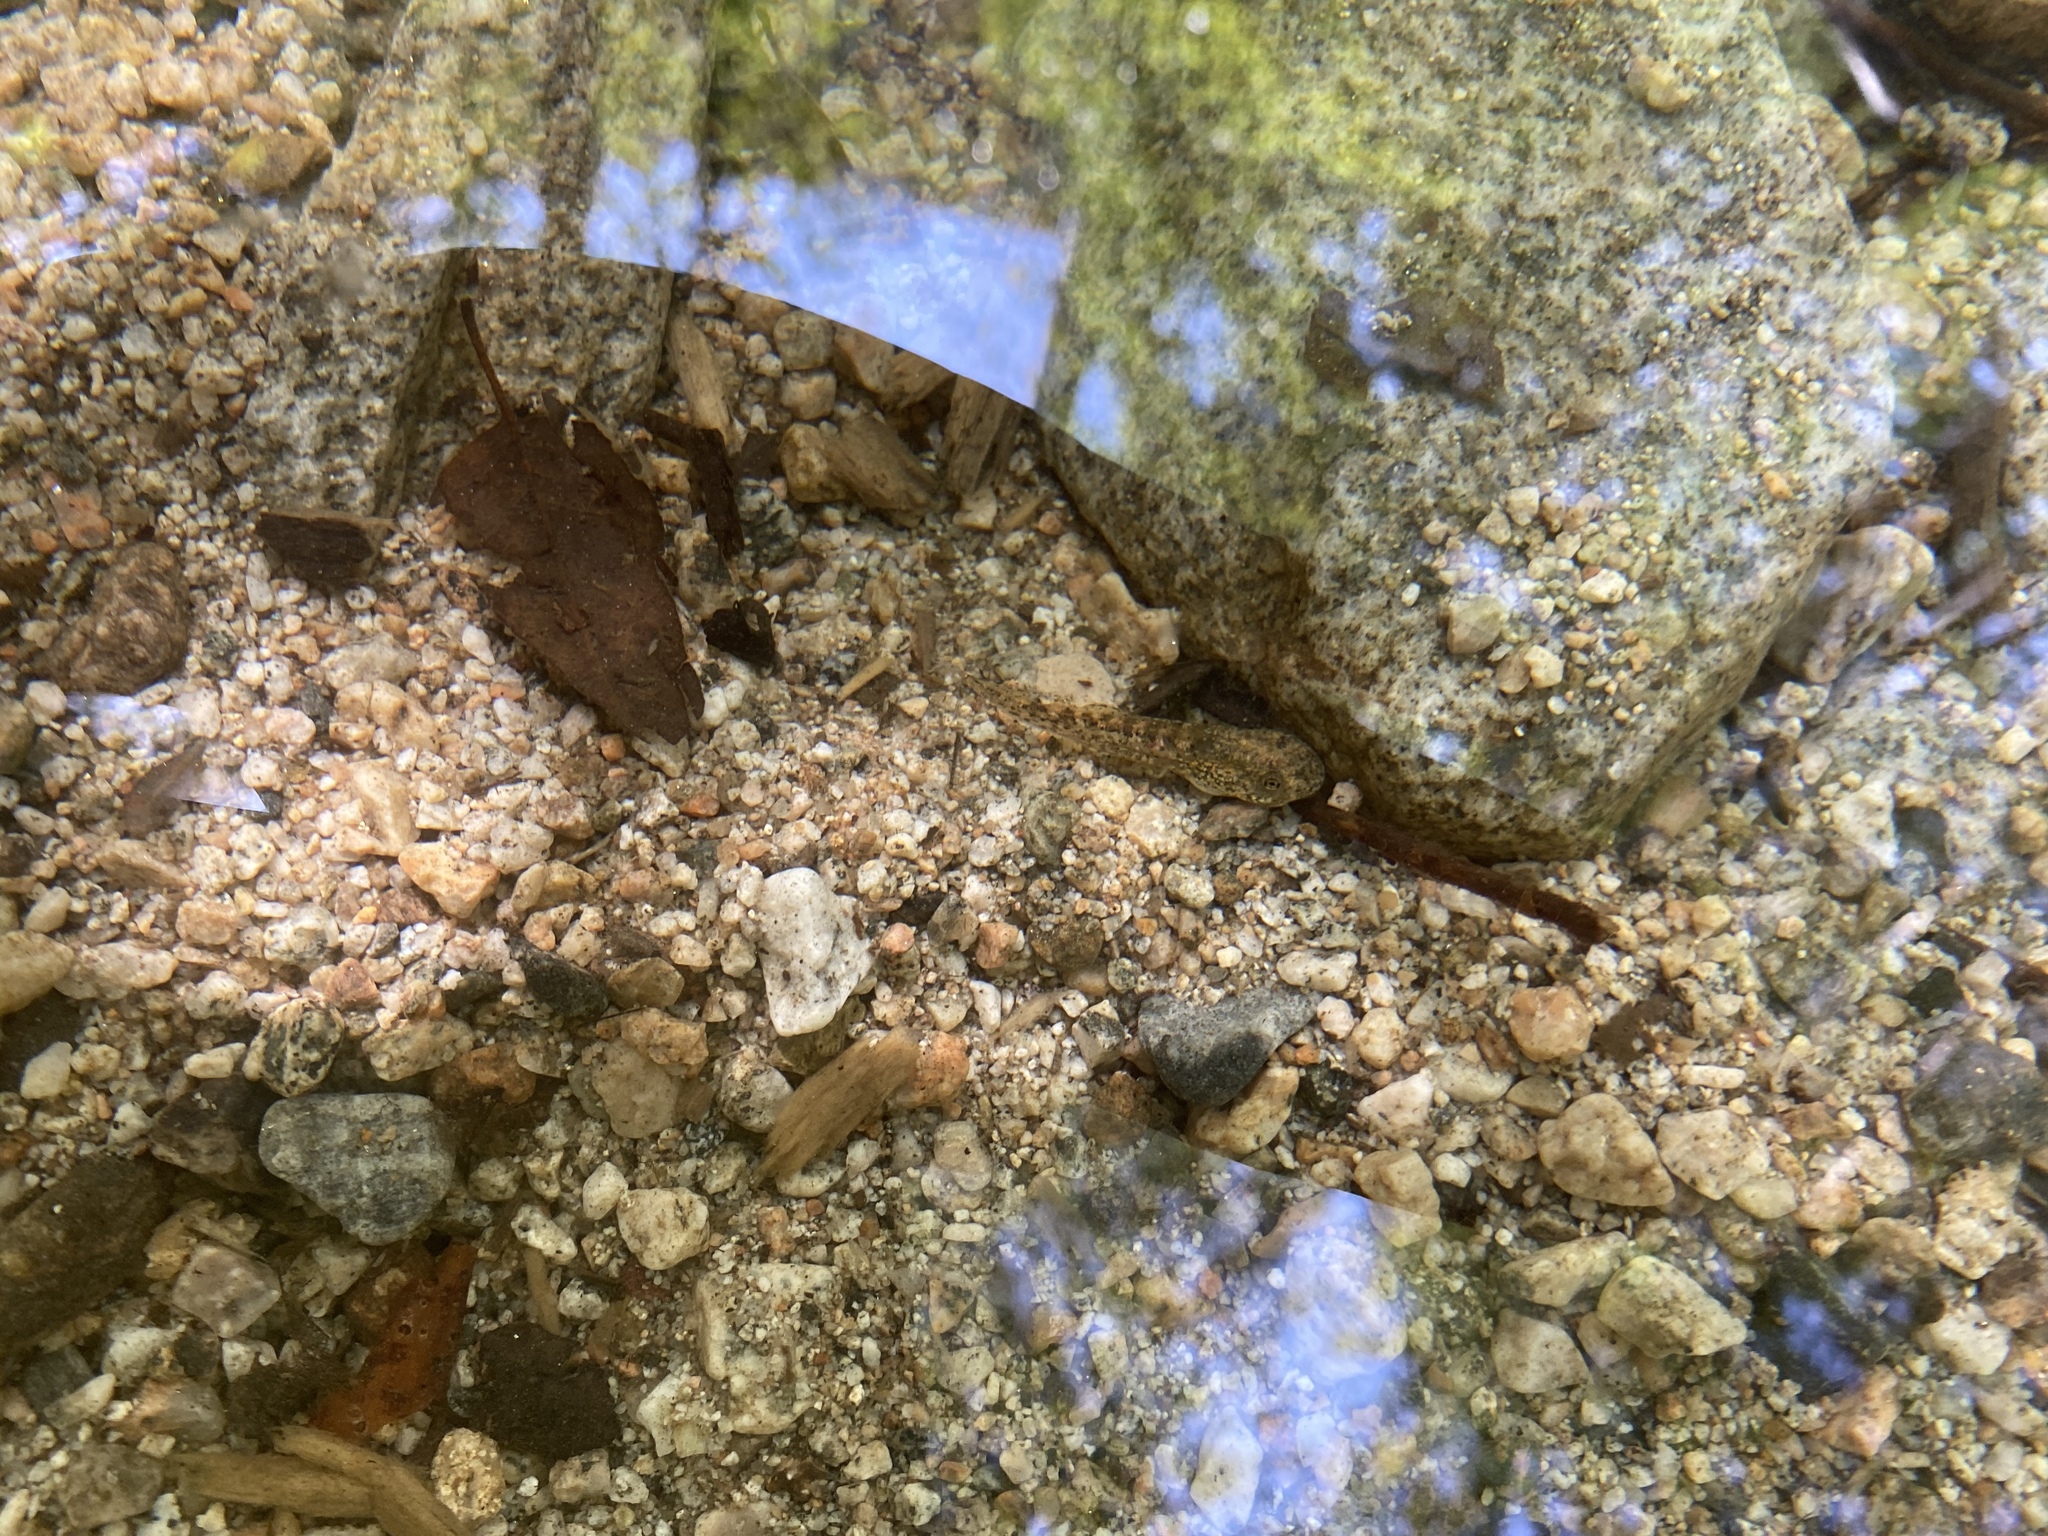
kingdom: Animalia
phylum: Chordata
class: Amphibia
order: Anura
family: Hylidae
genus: Pseudacris
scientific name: Pseudacris cadaverina
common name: California chorus frog
